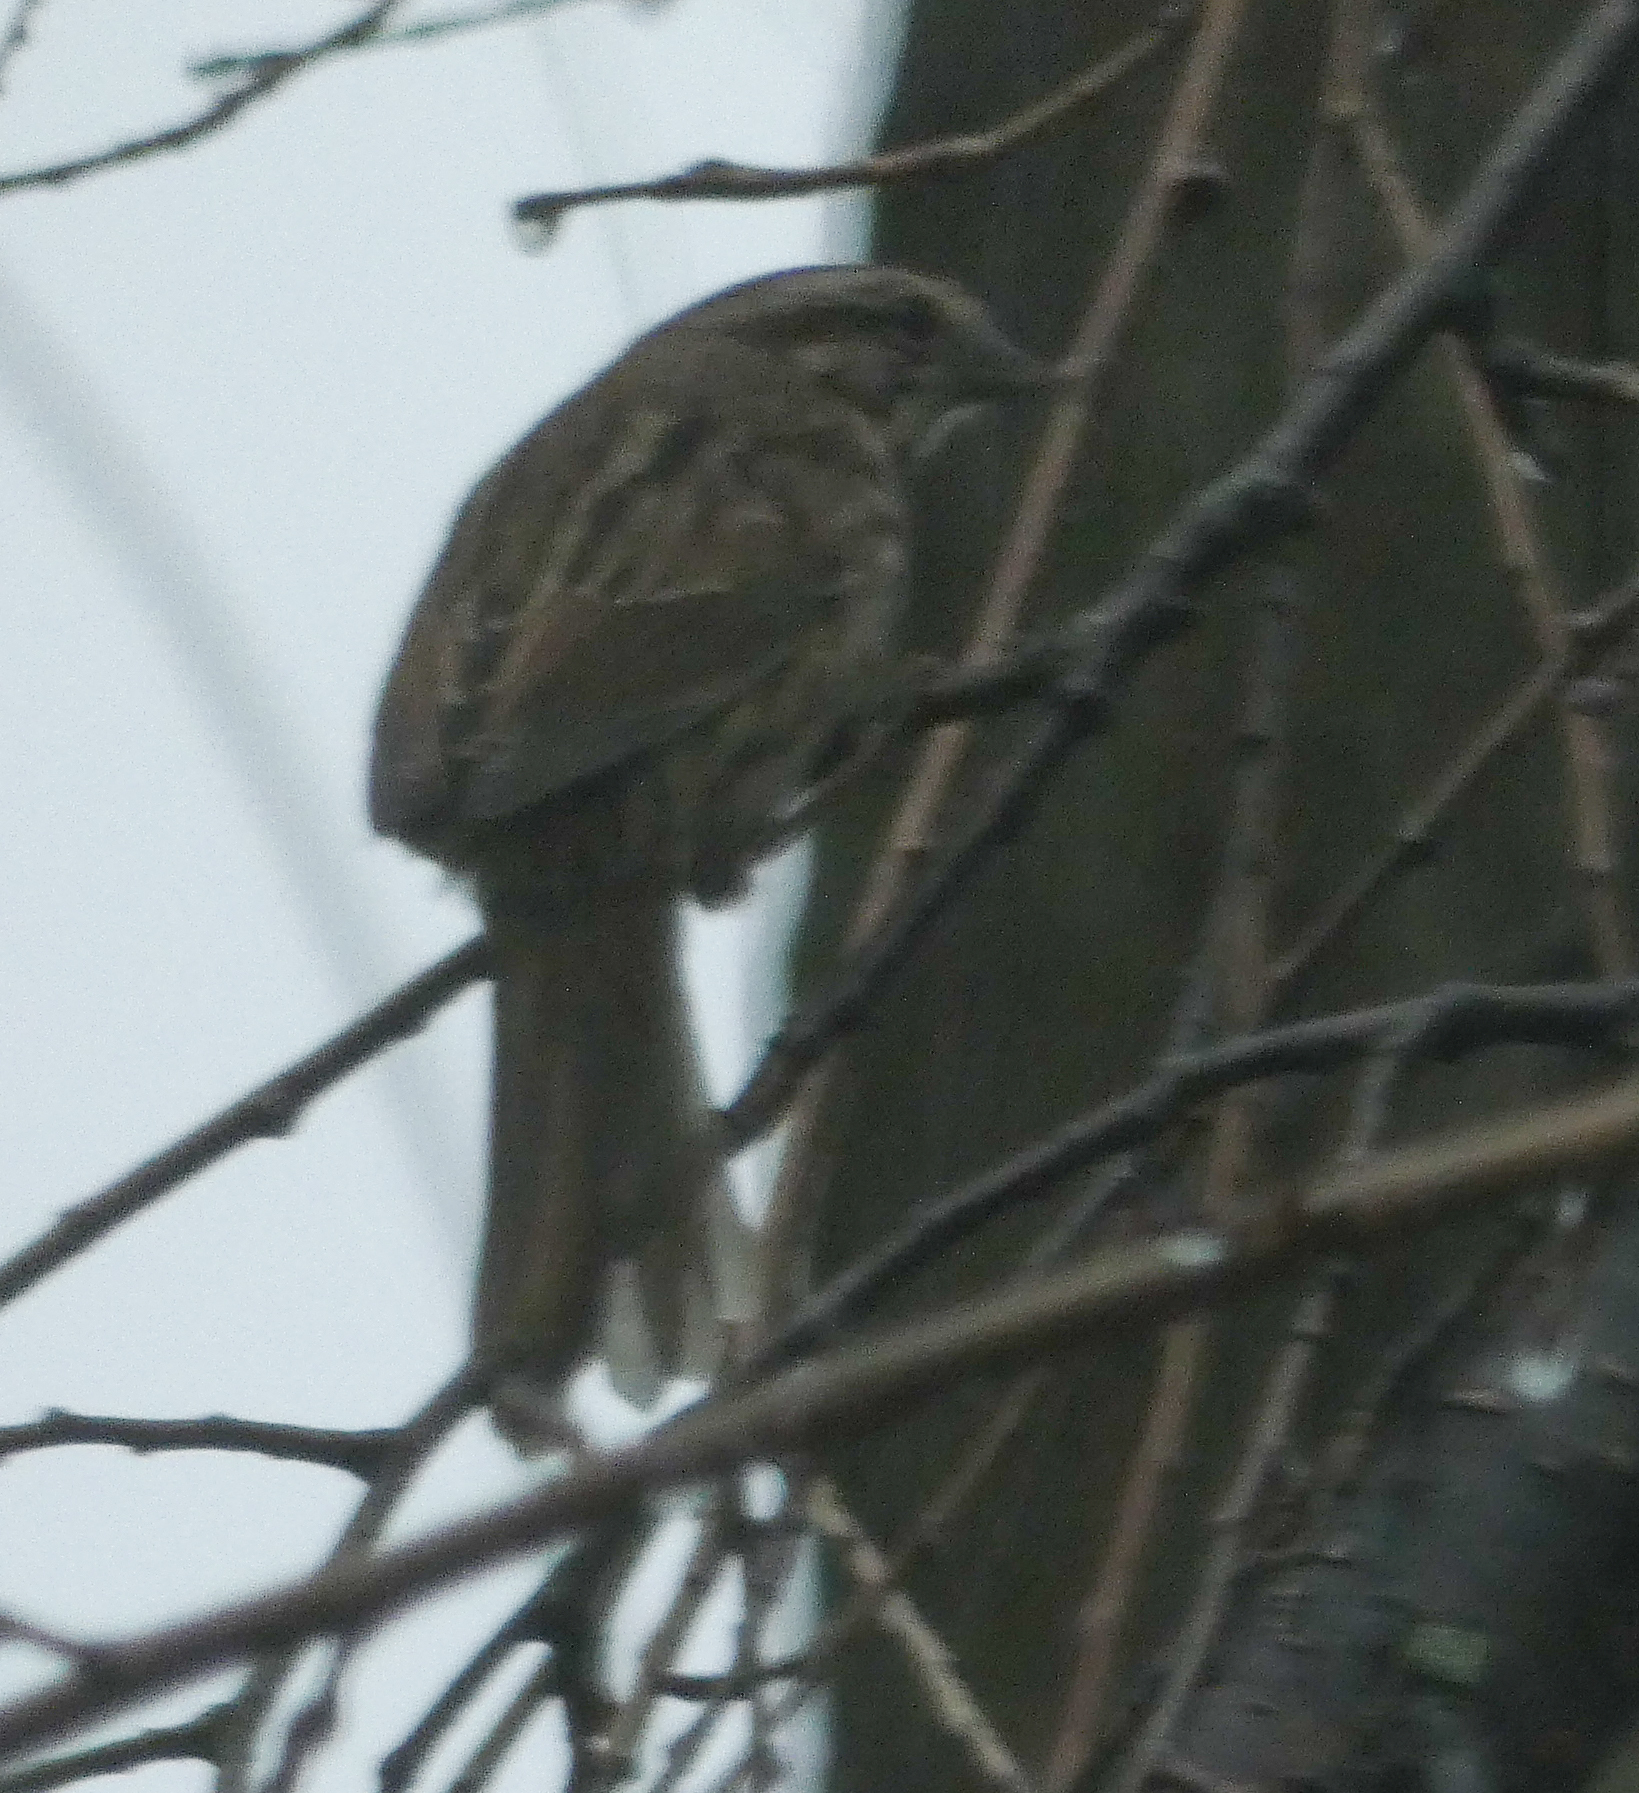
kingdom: Animalia
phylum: Chordata
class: Aves
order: Passeriformes
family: Passerellidae
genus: Melospiza
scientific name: Melospiza melodia
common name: Song sparrow
